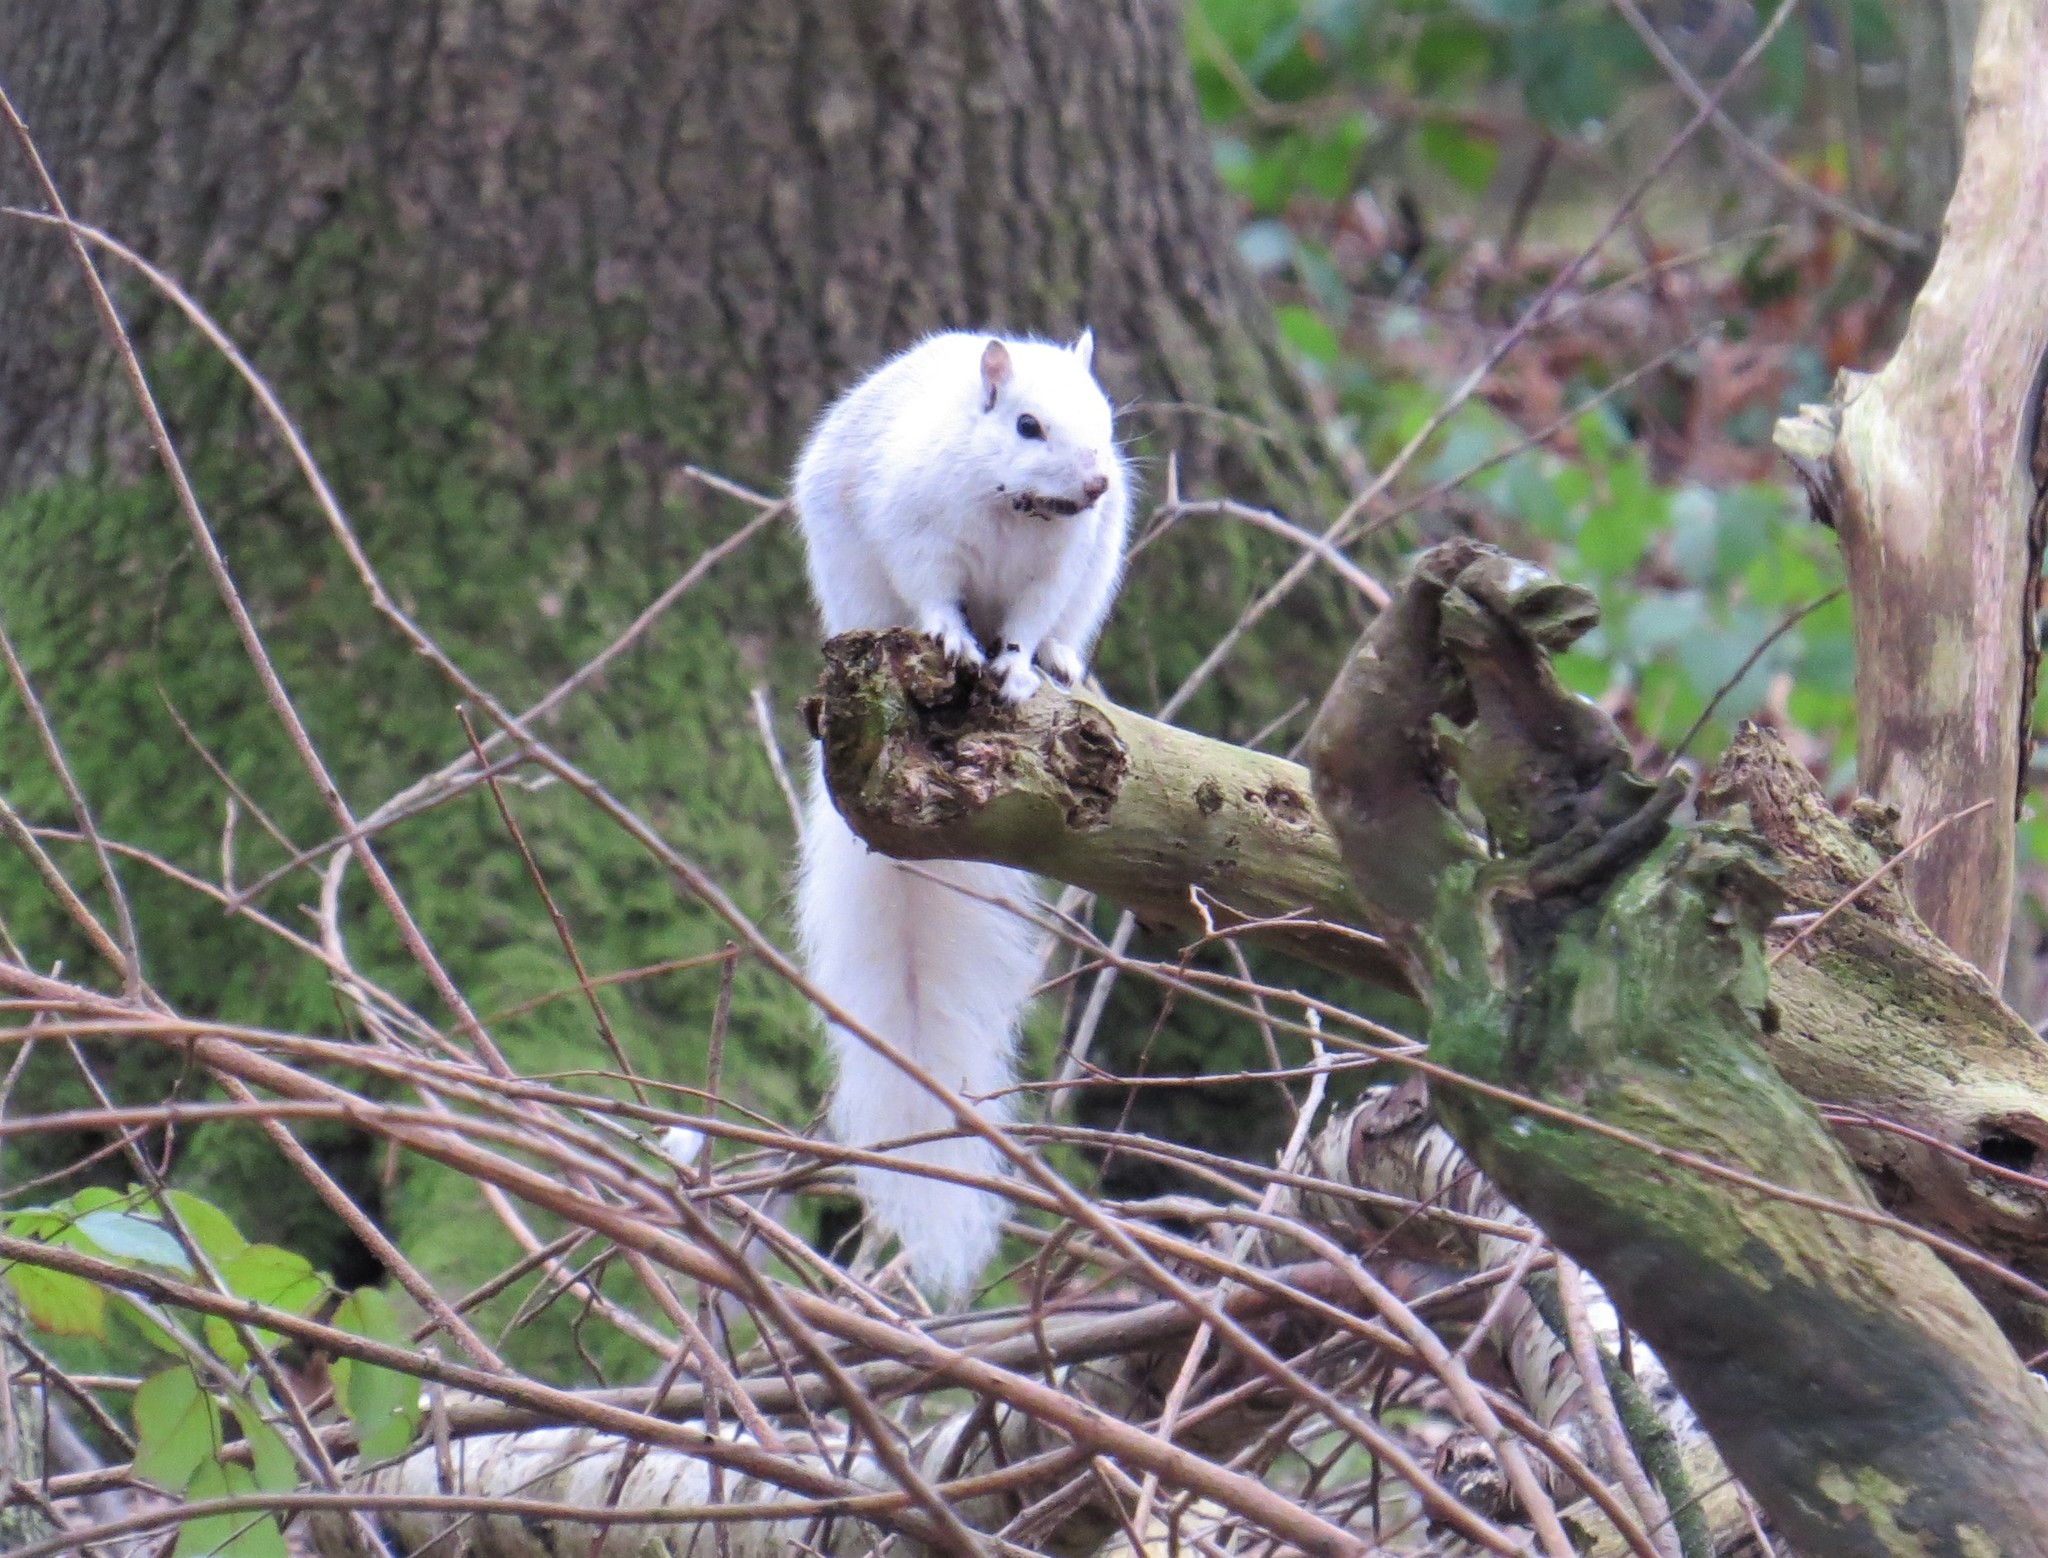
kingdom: Animalia
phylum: Chordata
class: Mammalia
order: Rodentia
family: Sciuridae
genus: Sciurus
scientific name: Sciurus carolinensis
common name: Eastern gray squirrel
